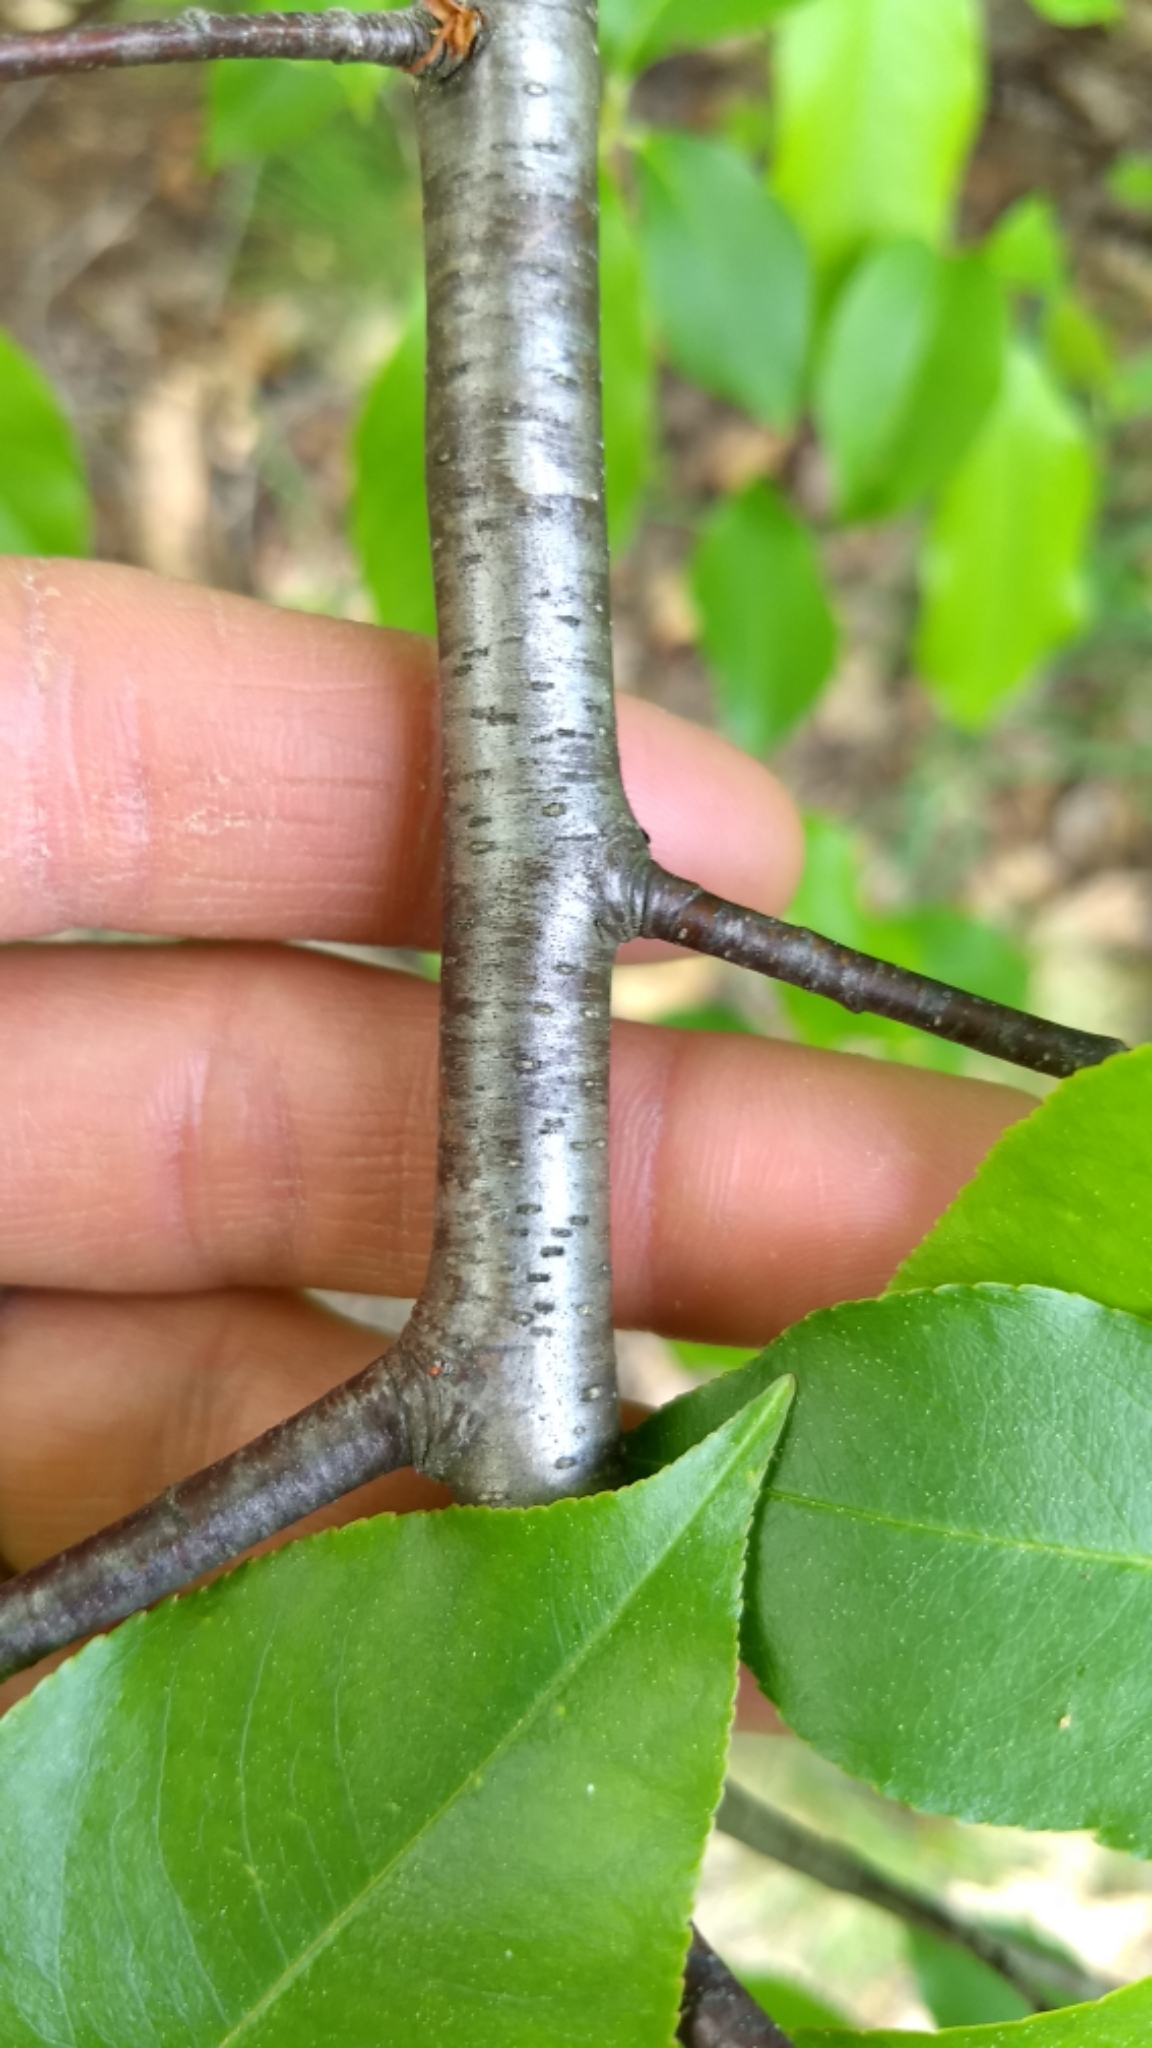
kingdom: Plantae
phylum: Tracheophyta
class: Magnoliopsida
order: Rosales
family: Rosaceae
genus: Prunus
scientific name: Prunus serotina
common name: Black cherry
